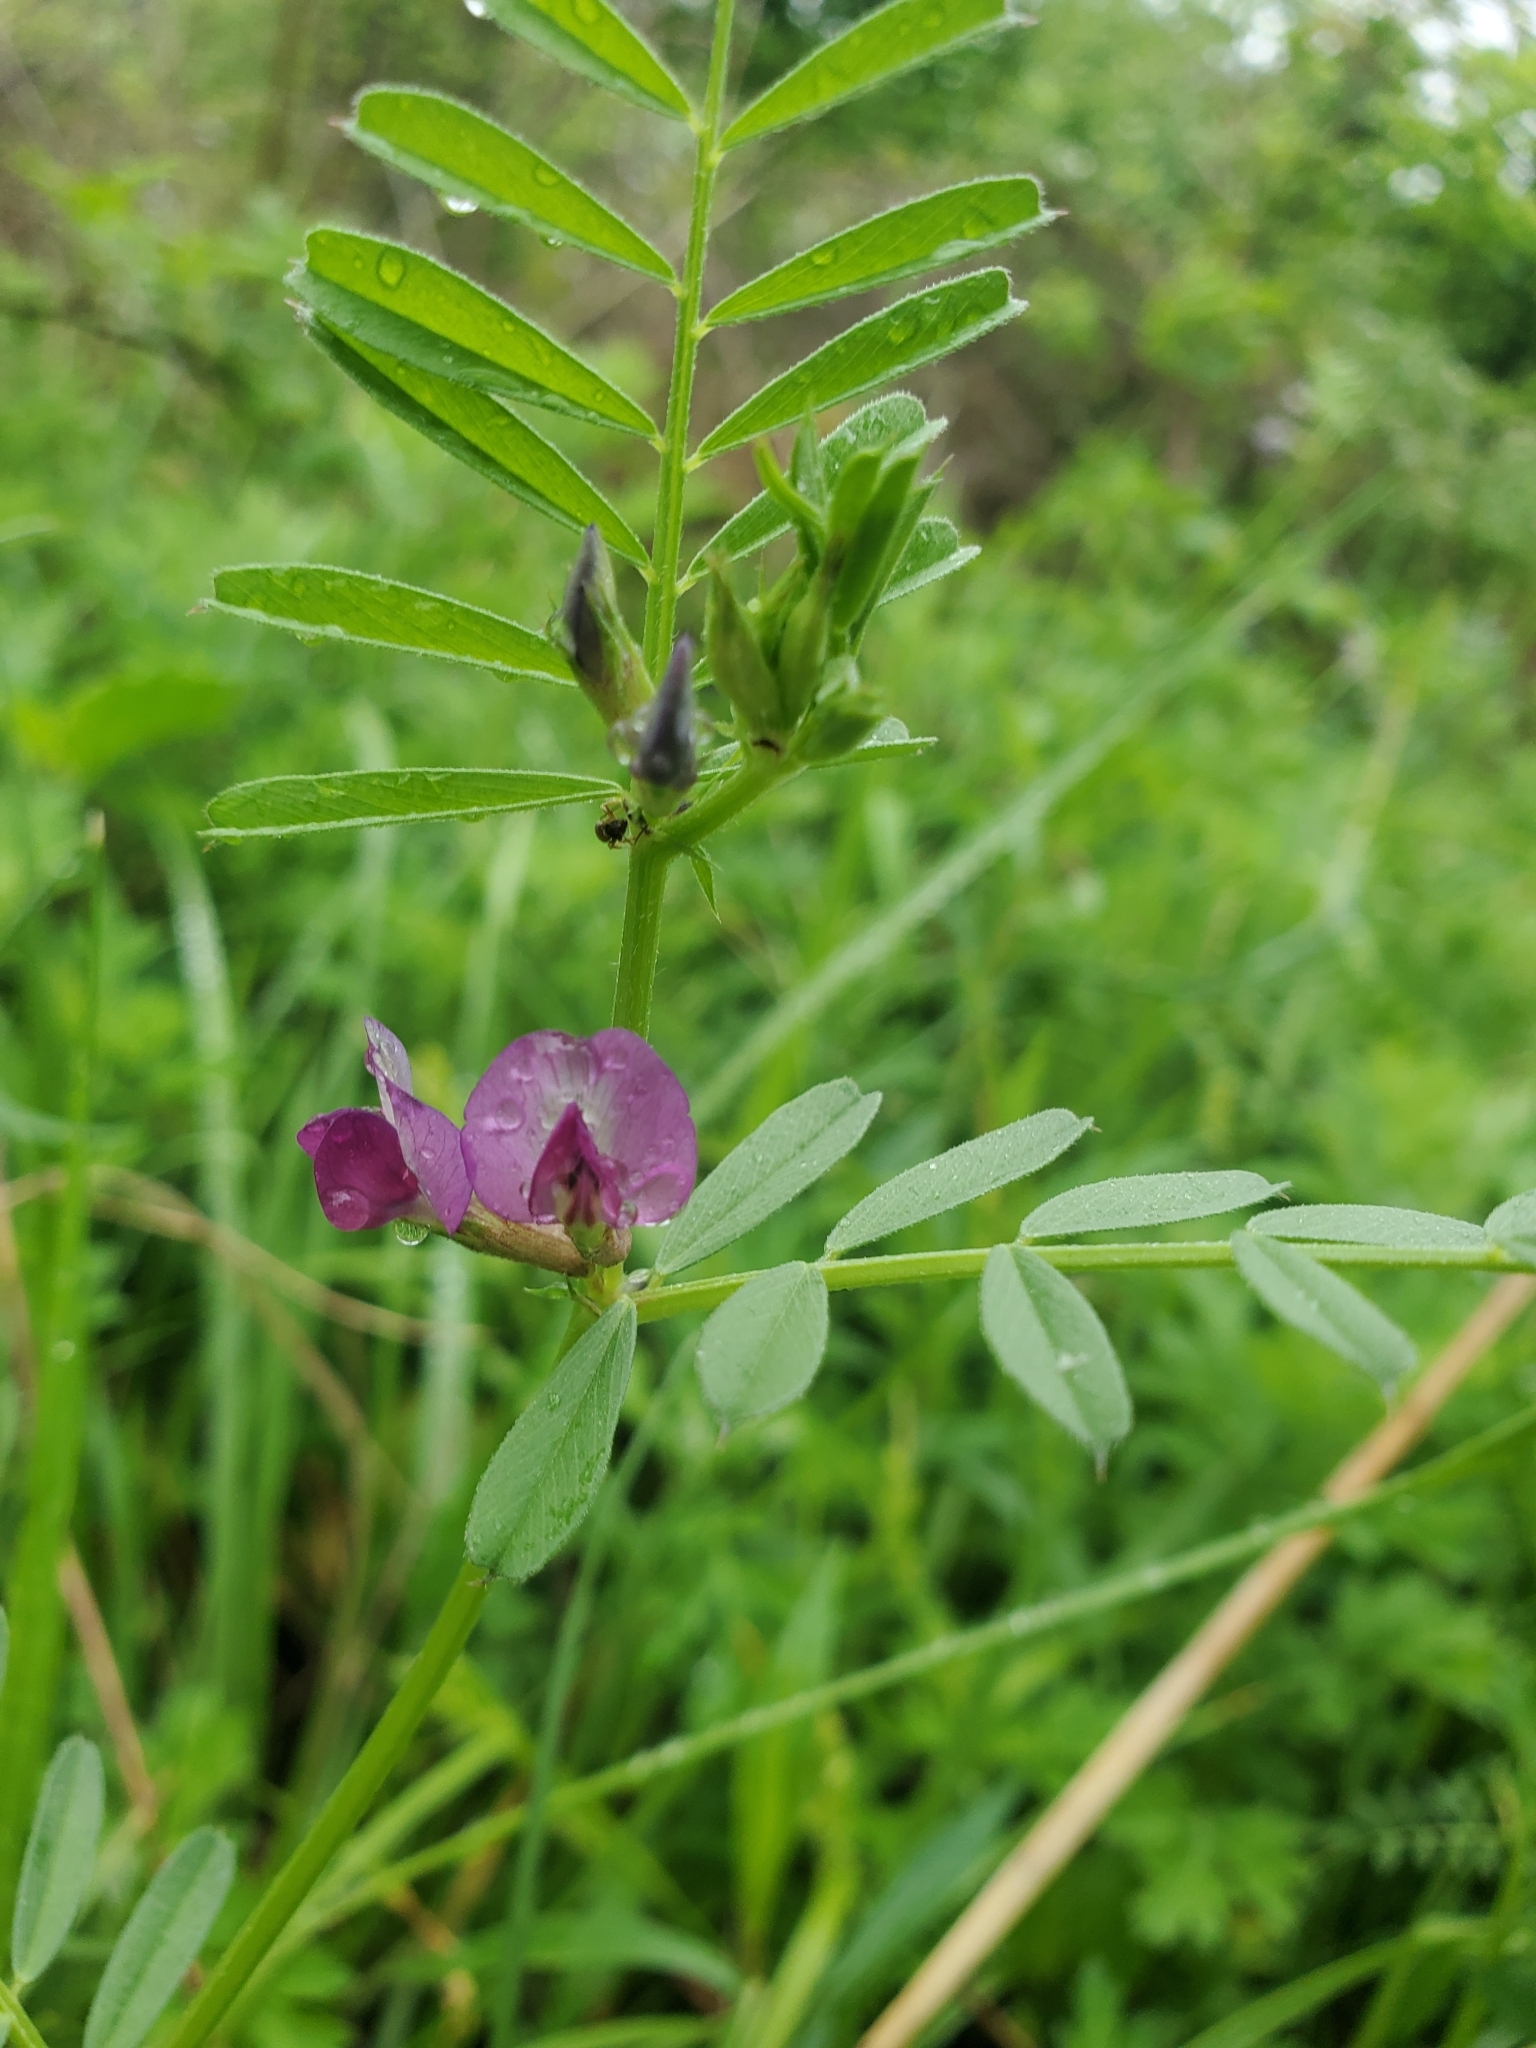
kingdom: Plantae
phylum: Tracheophyta
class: Magnoliopsida
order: Fabales
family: Fabaceae
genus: Vicia
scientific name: Vicia sativa
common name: Garden vetch
